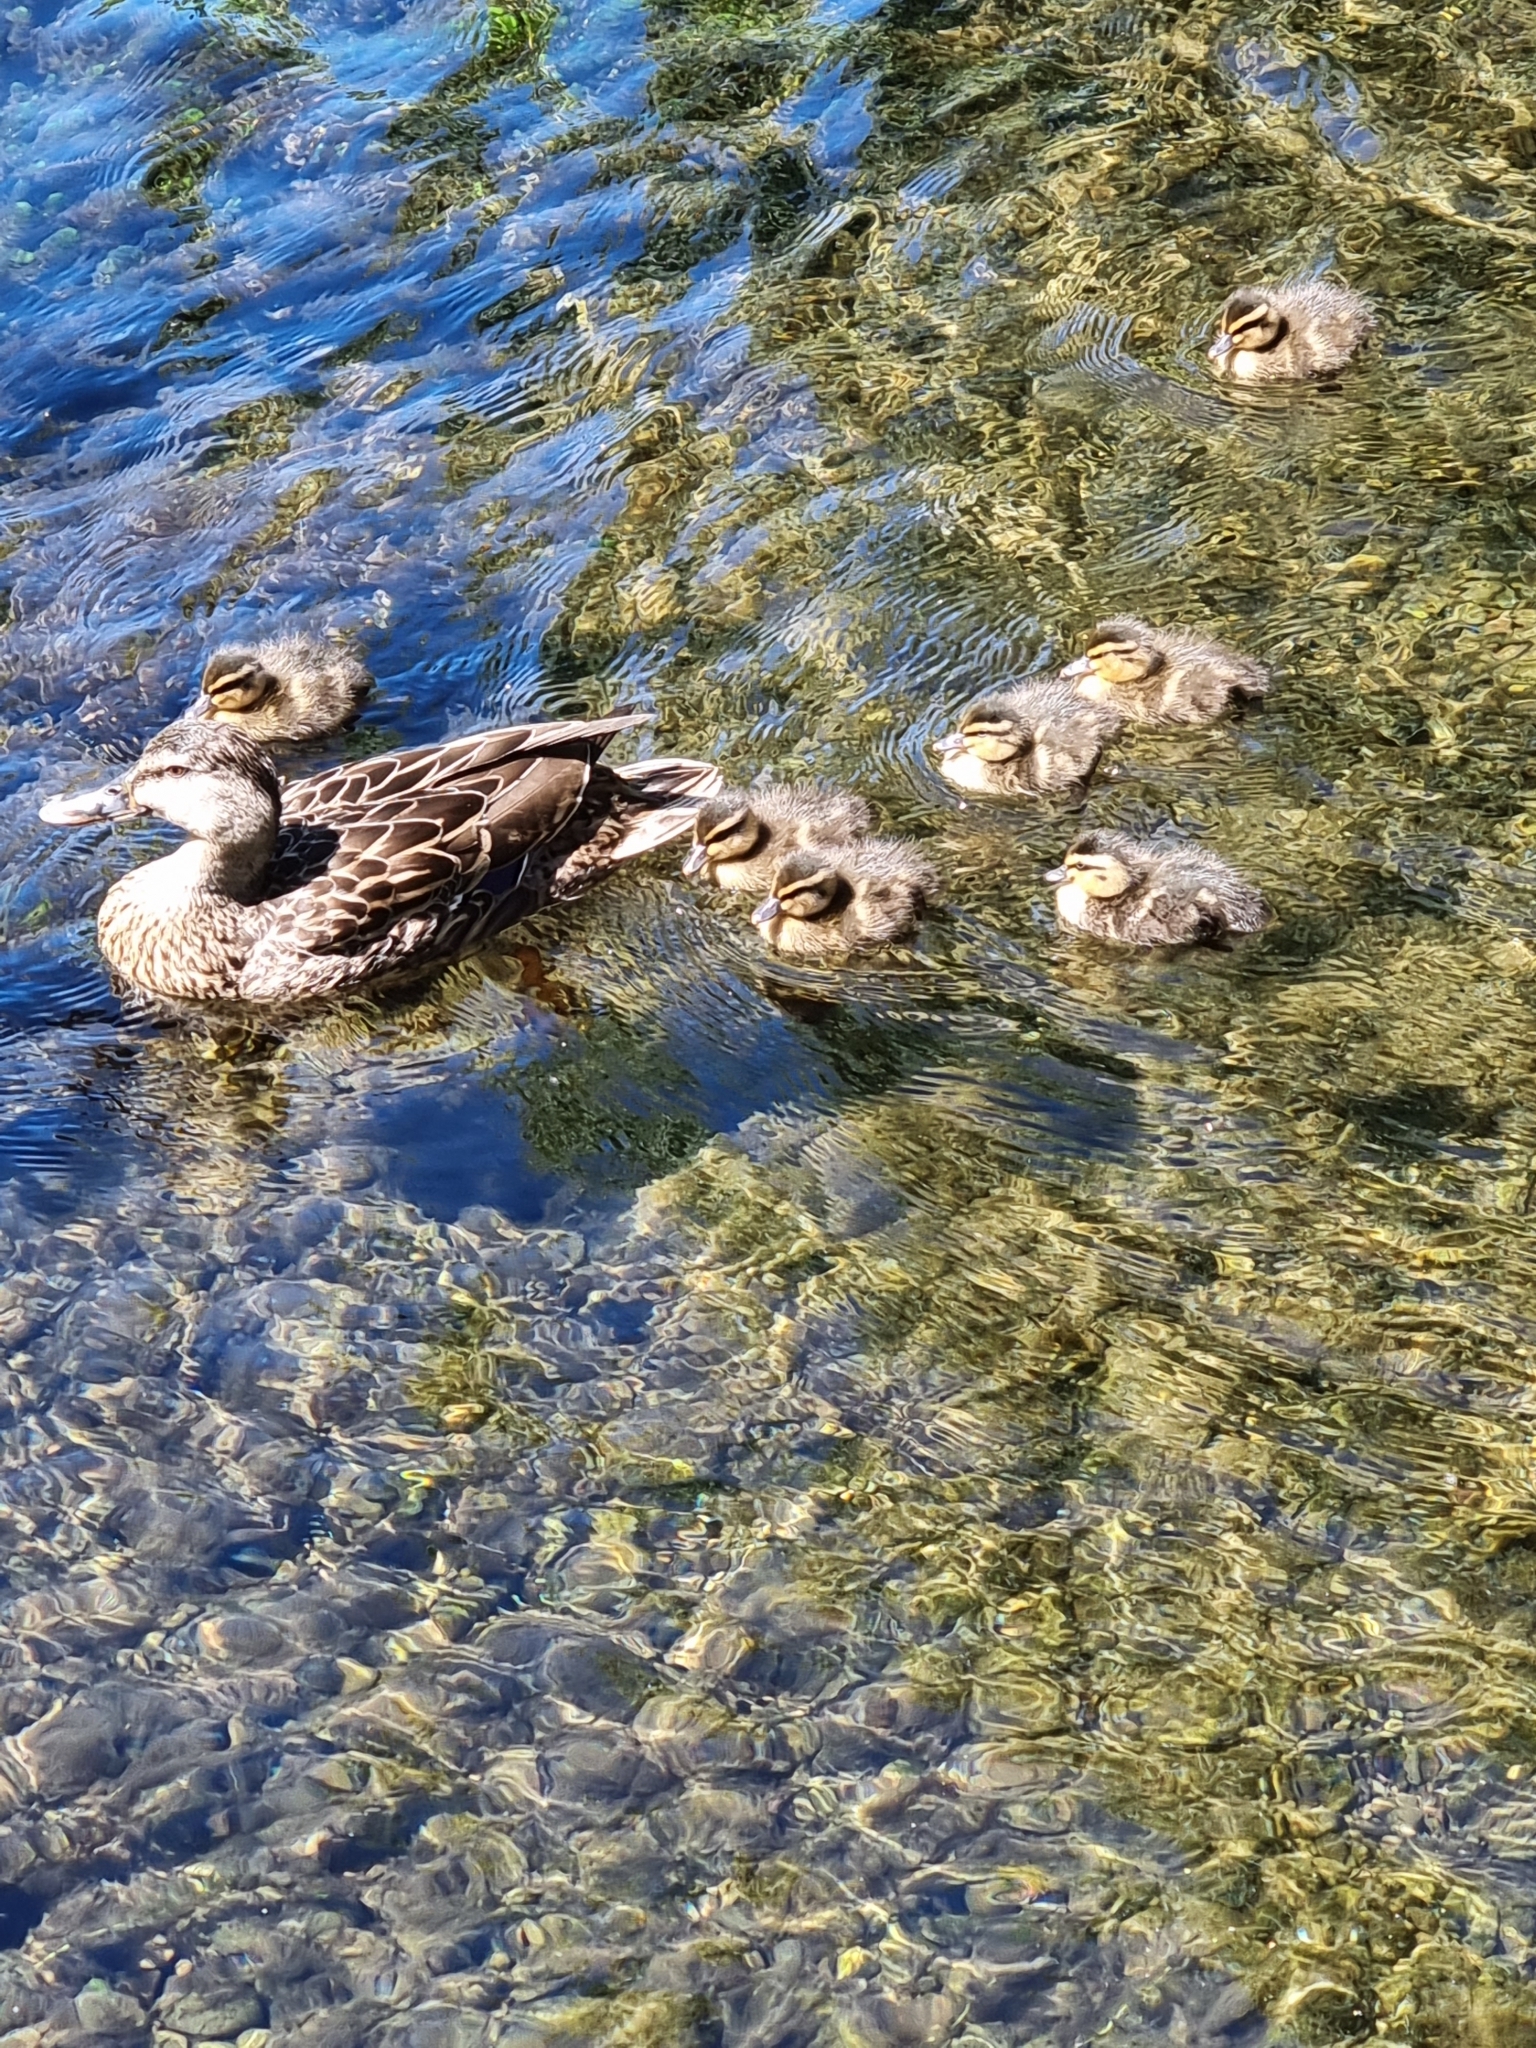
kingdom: Animalia
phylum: Chordata
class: Aves
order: Anseriformes
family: Anatidae
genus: Anas
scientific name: Anas platyrhynchos
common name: Mallard
